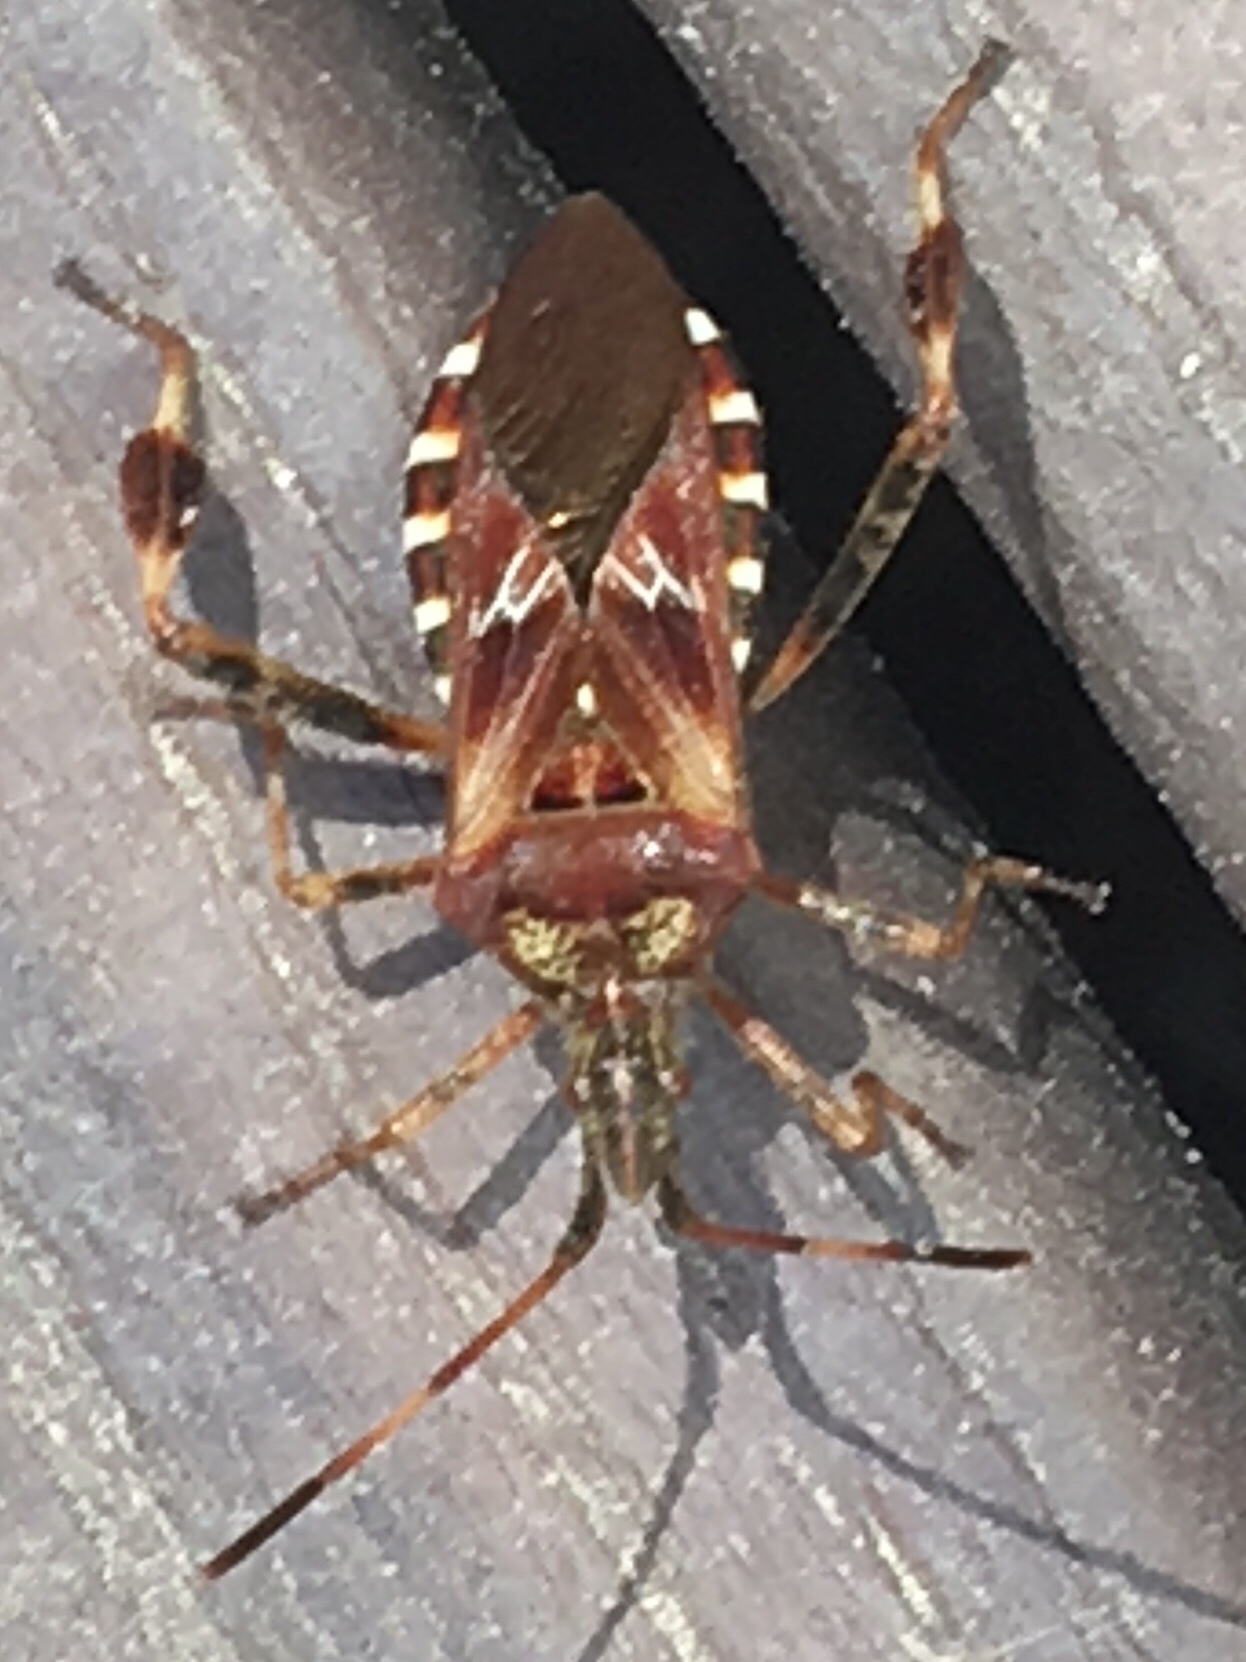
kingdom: Animalia
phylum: Arthropoda
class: Insecta
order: Hemiptera
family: Coreidae
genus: Leptoglossus
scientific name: Leptoglossus occidentalis
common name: Western conifer-seed bug
